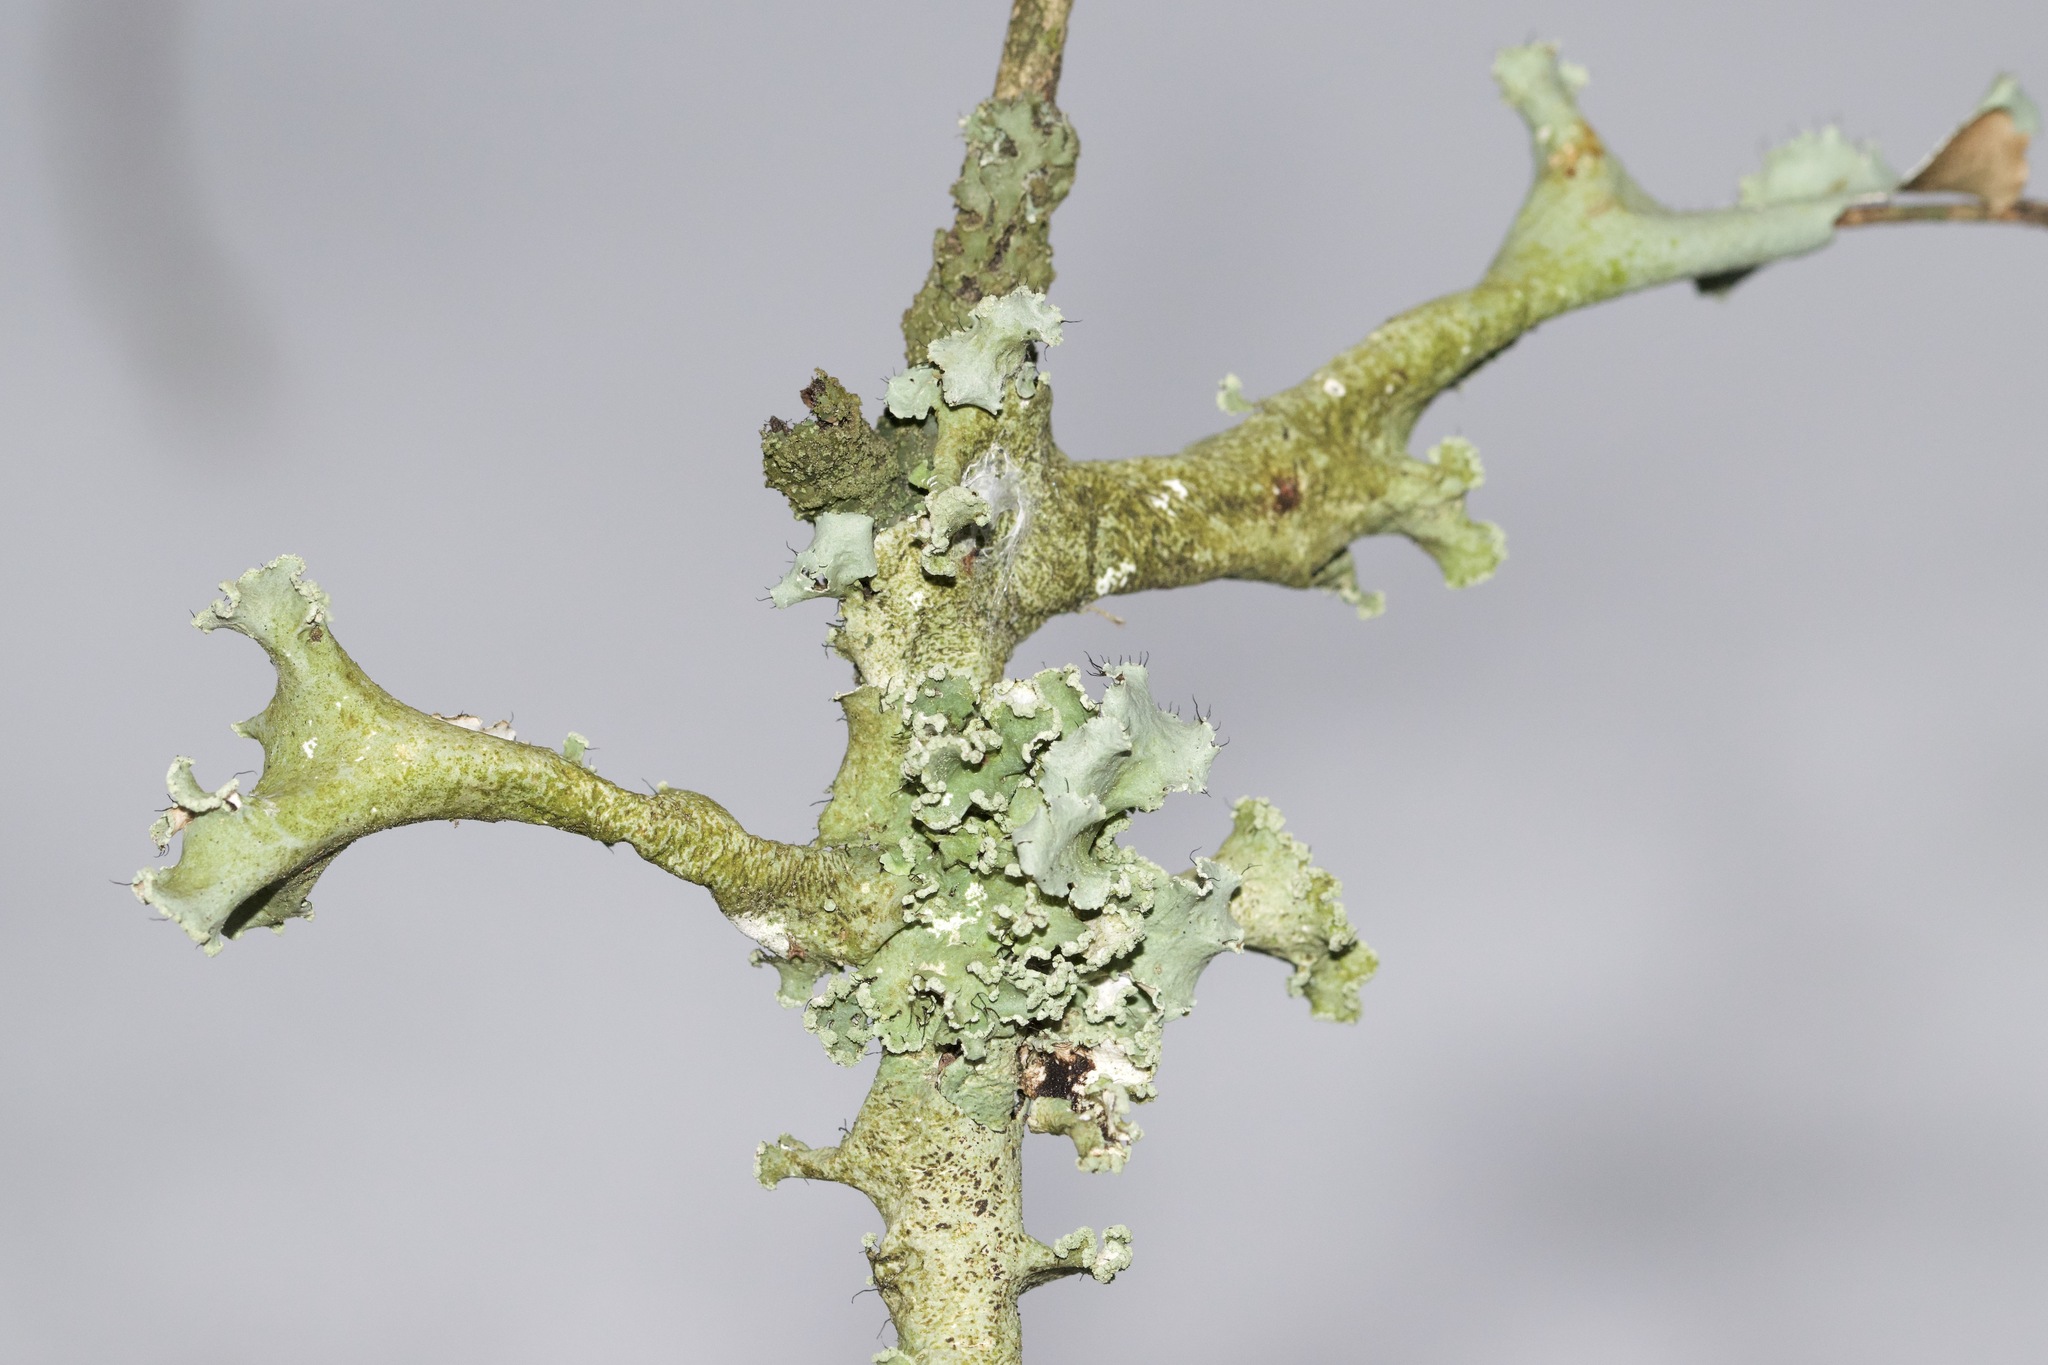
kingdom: Fungi
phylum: Ascomycota
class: Lecanoromycetes
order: Lecanorales
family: Parmeliaceae
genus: Parmotrema
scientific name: Parmotrema hypotropum
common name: Powdered ruffle lichen
